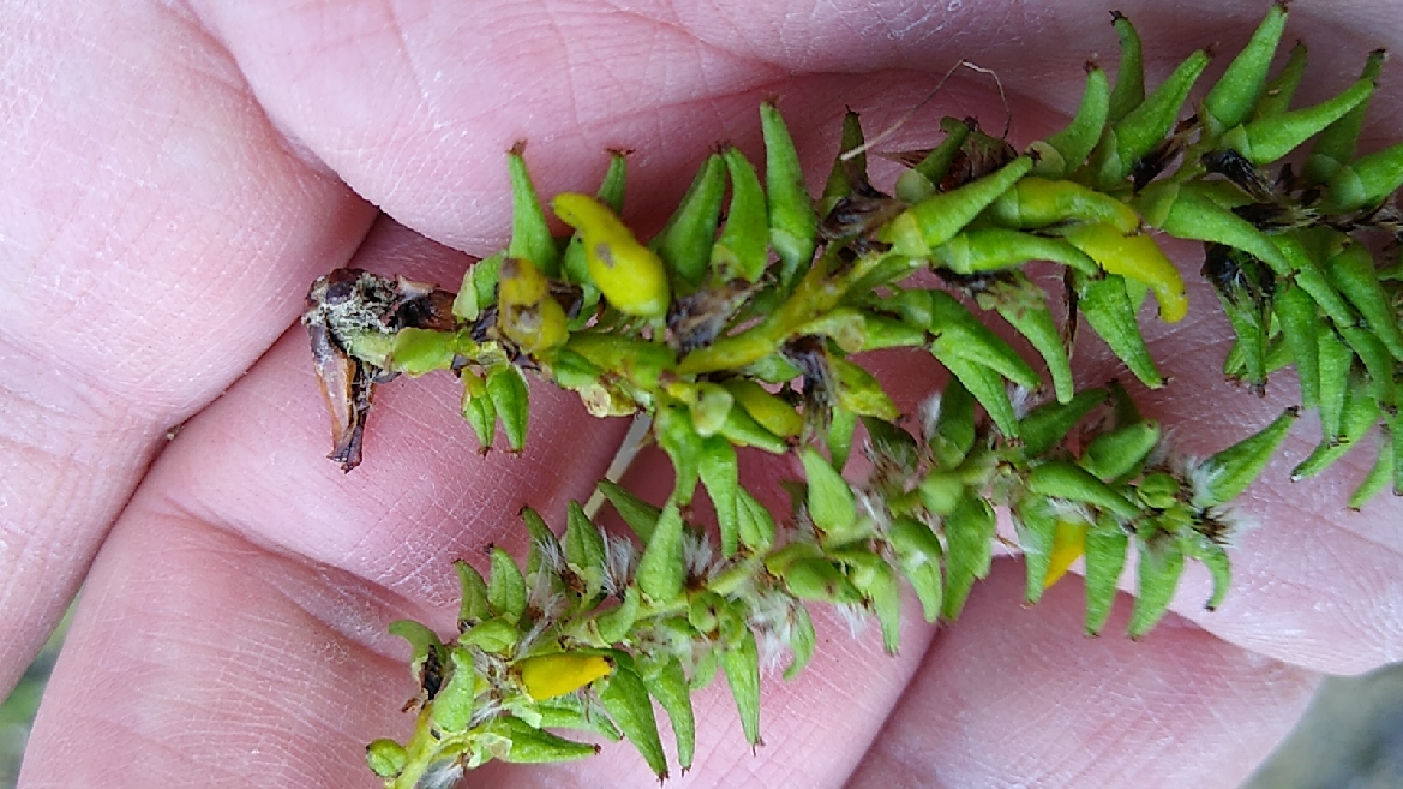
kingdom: Fungi
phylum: Ascomycota
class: Taphrinomycetes
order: Taphrinales
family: Taphrinaceae
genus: Taphrina
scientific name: Taphrina johansonii
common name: Aspen tongue
